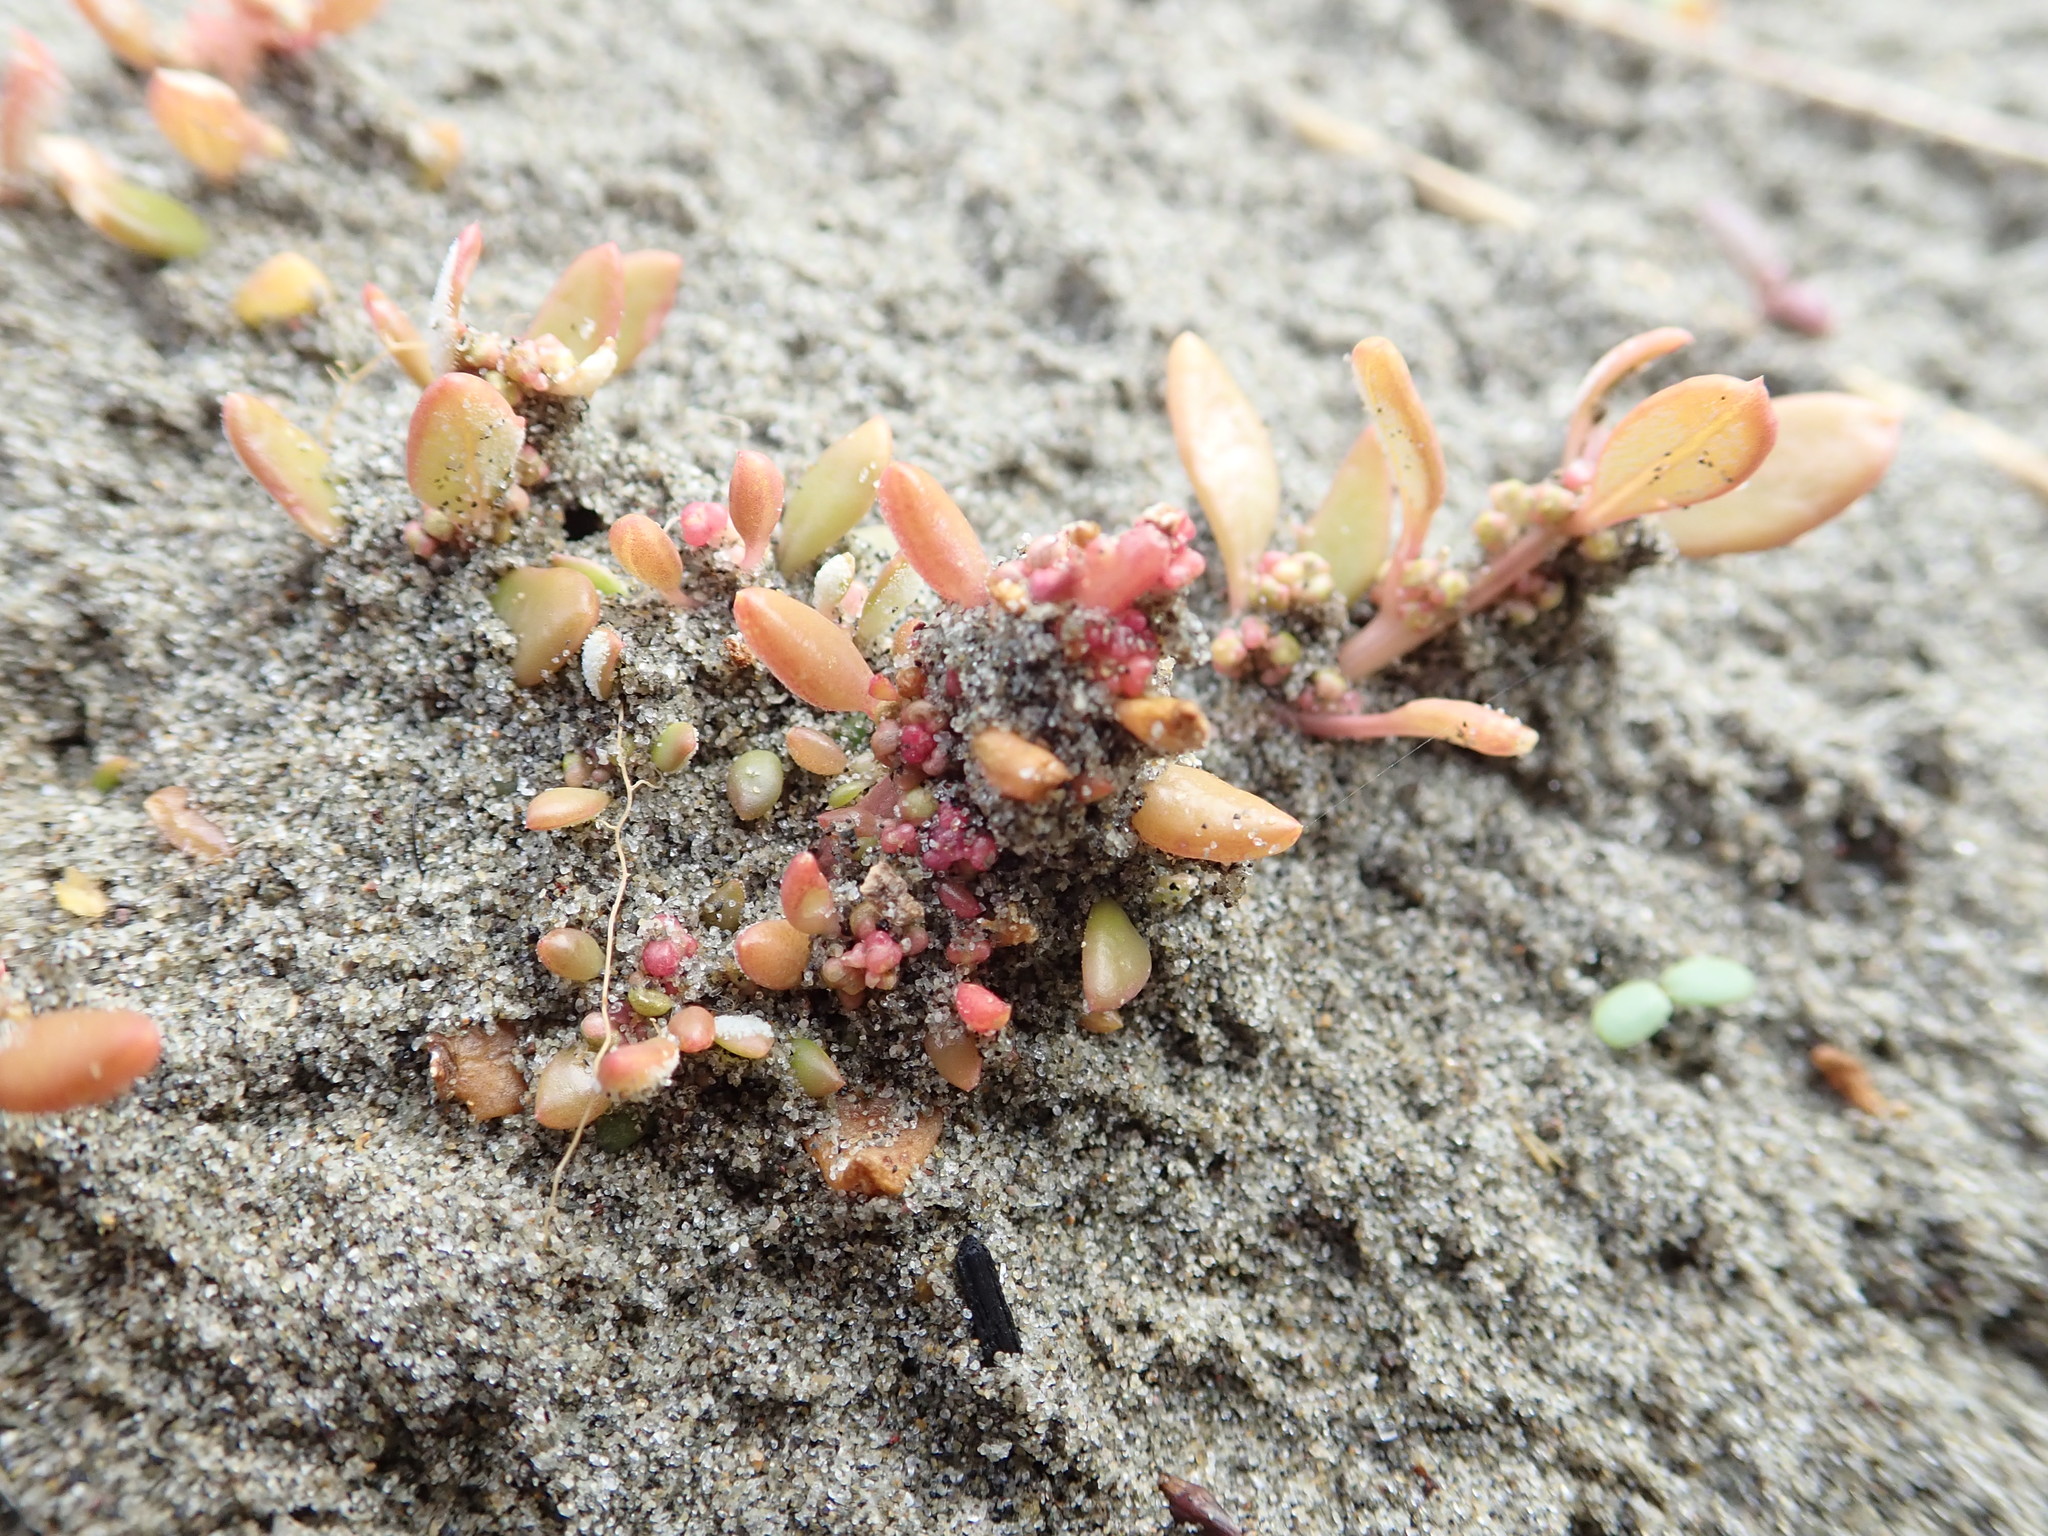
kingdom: Plantae
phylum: Tracheophyta
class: Magnoliopsida
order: Caryophyllales
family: Amaranthaceae
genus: Oxybasis
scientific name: Oxybasis ambigua
